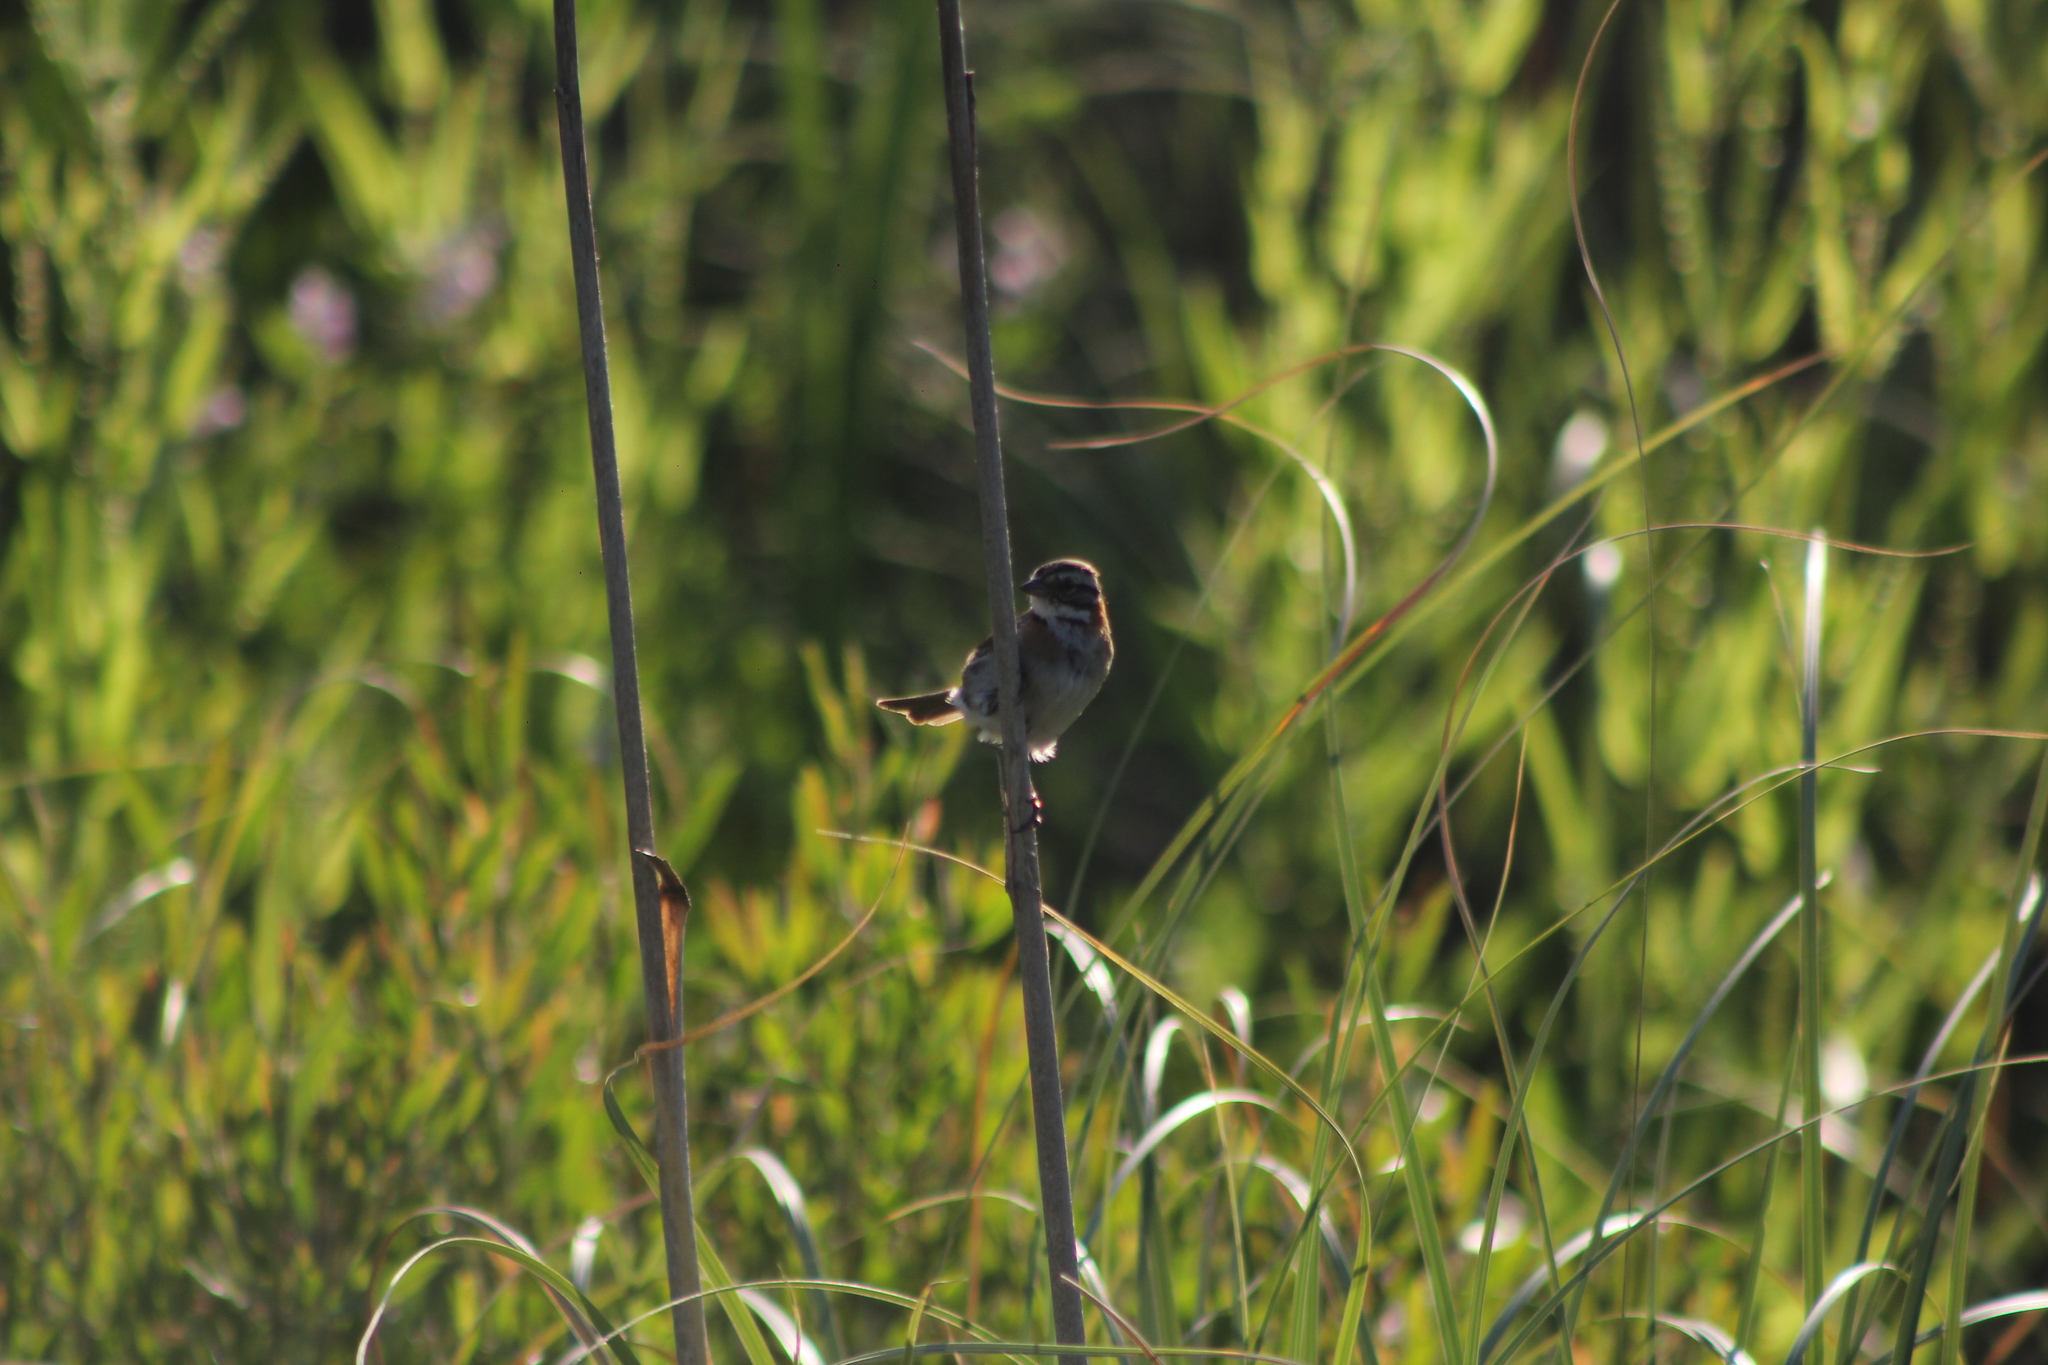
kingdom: Animalia
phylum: Chordata
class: Aves
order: Passeriformes
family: Passerellidae
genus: Zonotrichia
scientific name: Zonotrichia capensis
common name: Rufous-collared sparrow
